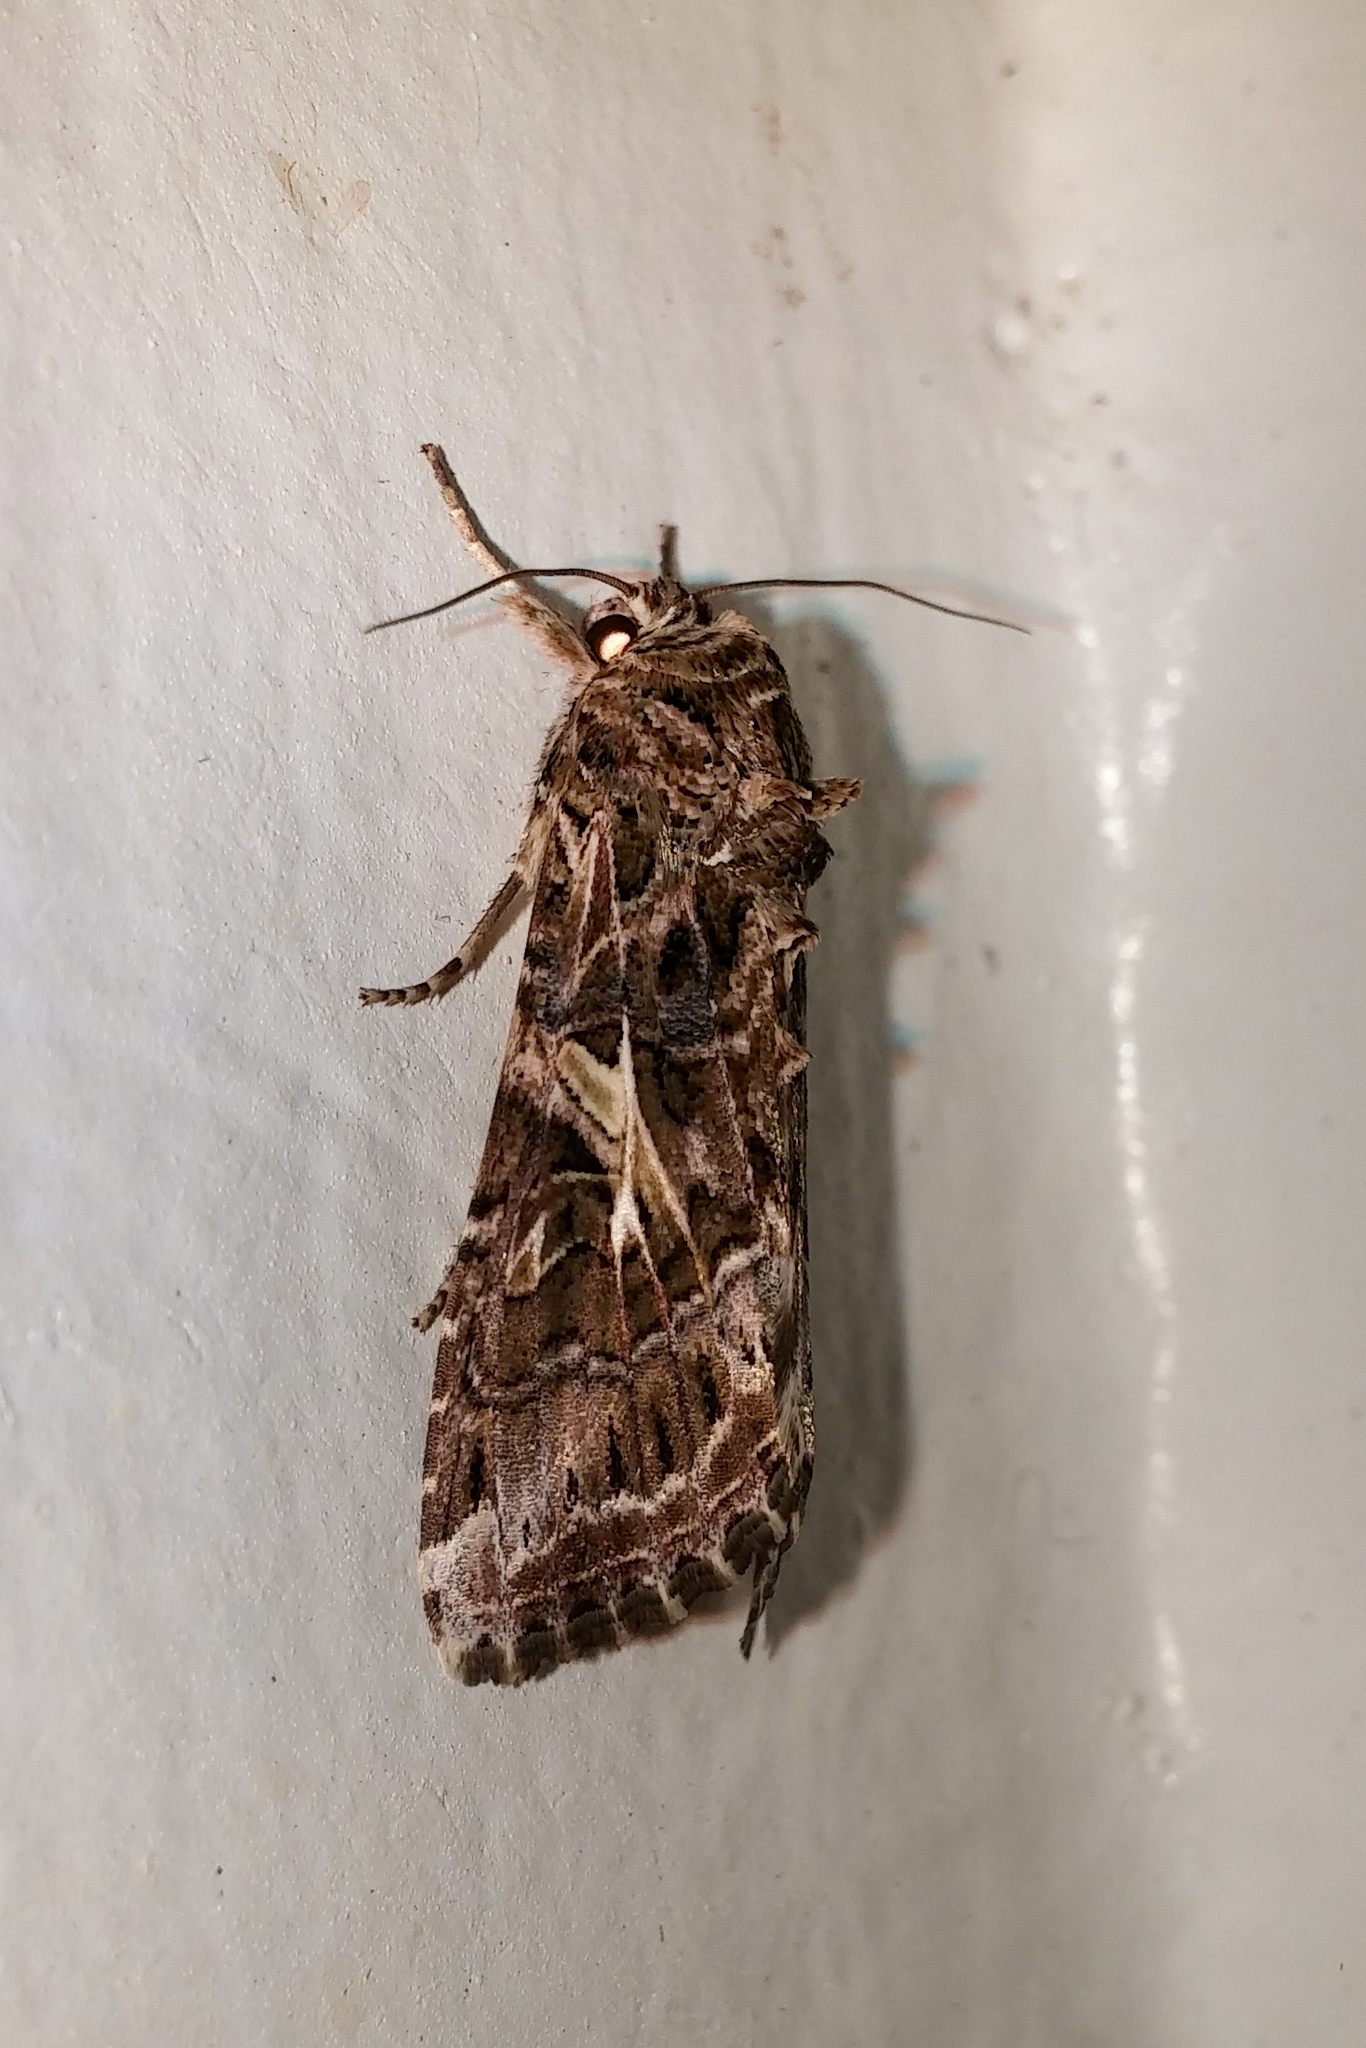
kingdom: Animalia
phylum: Arthropoda
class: Insecta
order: Lepidoptera
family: Noctuidae
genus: Spodoptera
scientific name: Spodoptera ornithogalli
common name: Yellow-striped armyworm
